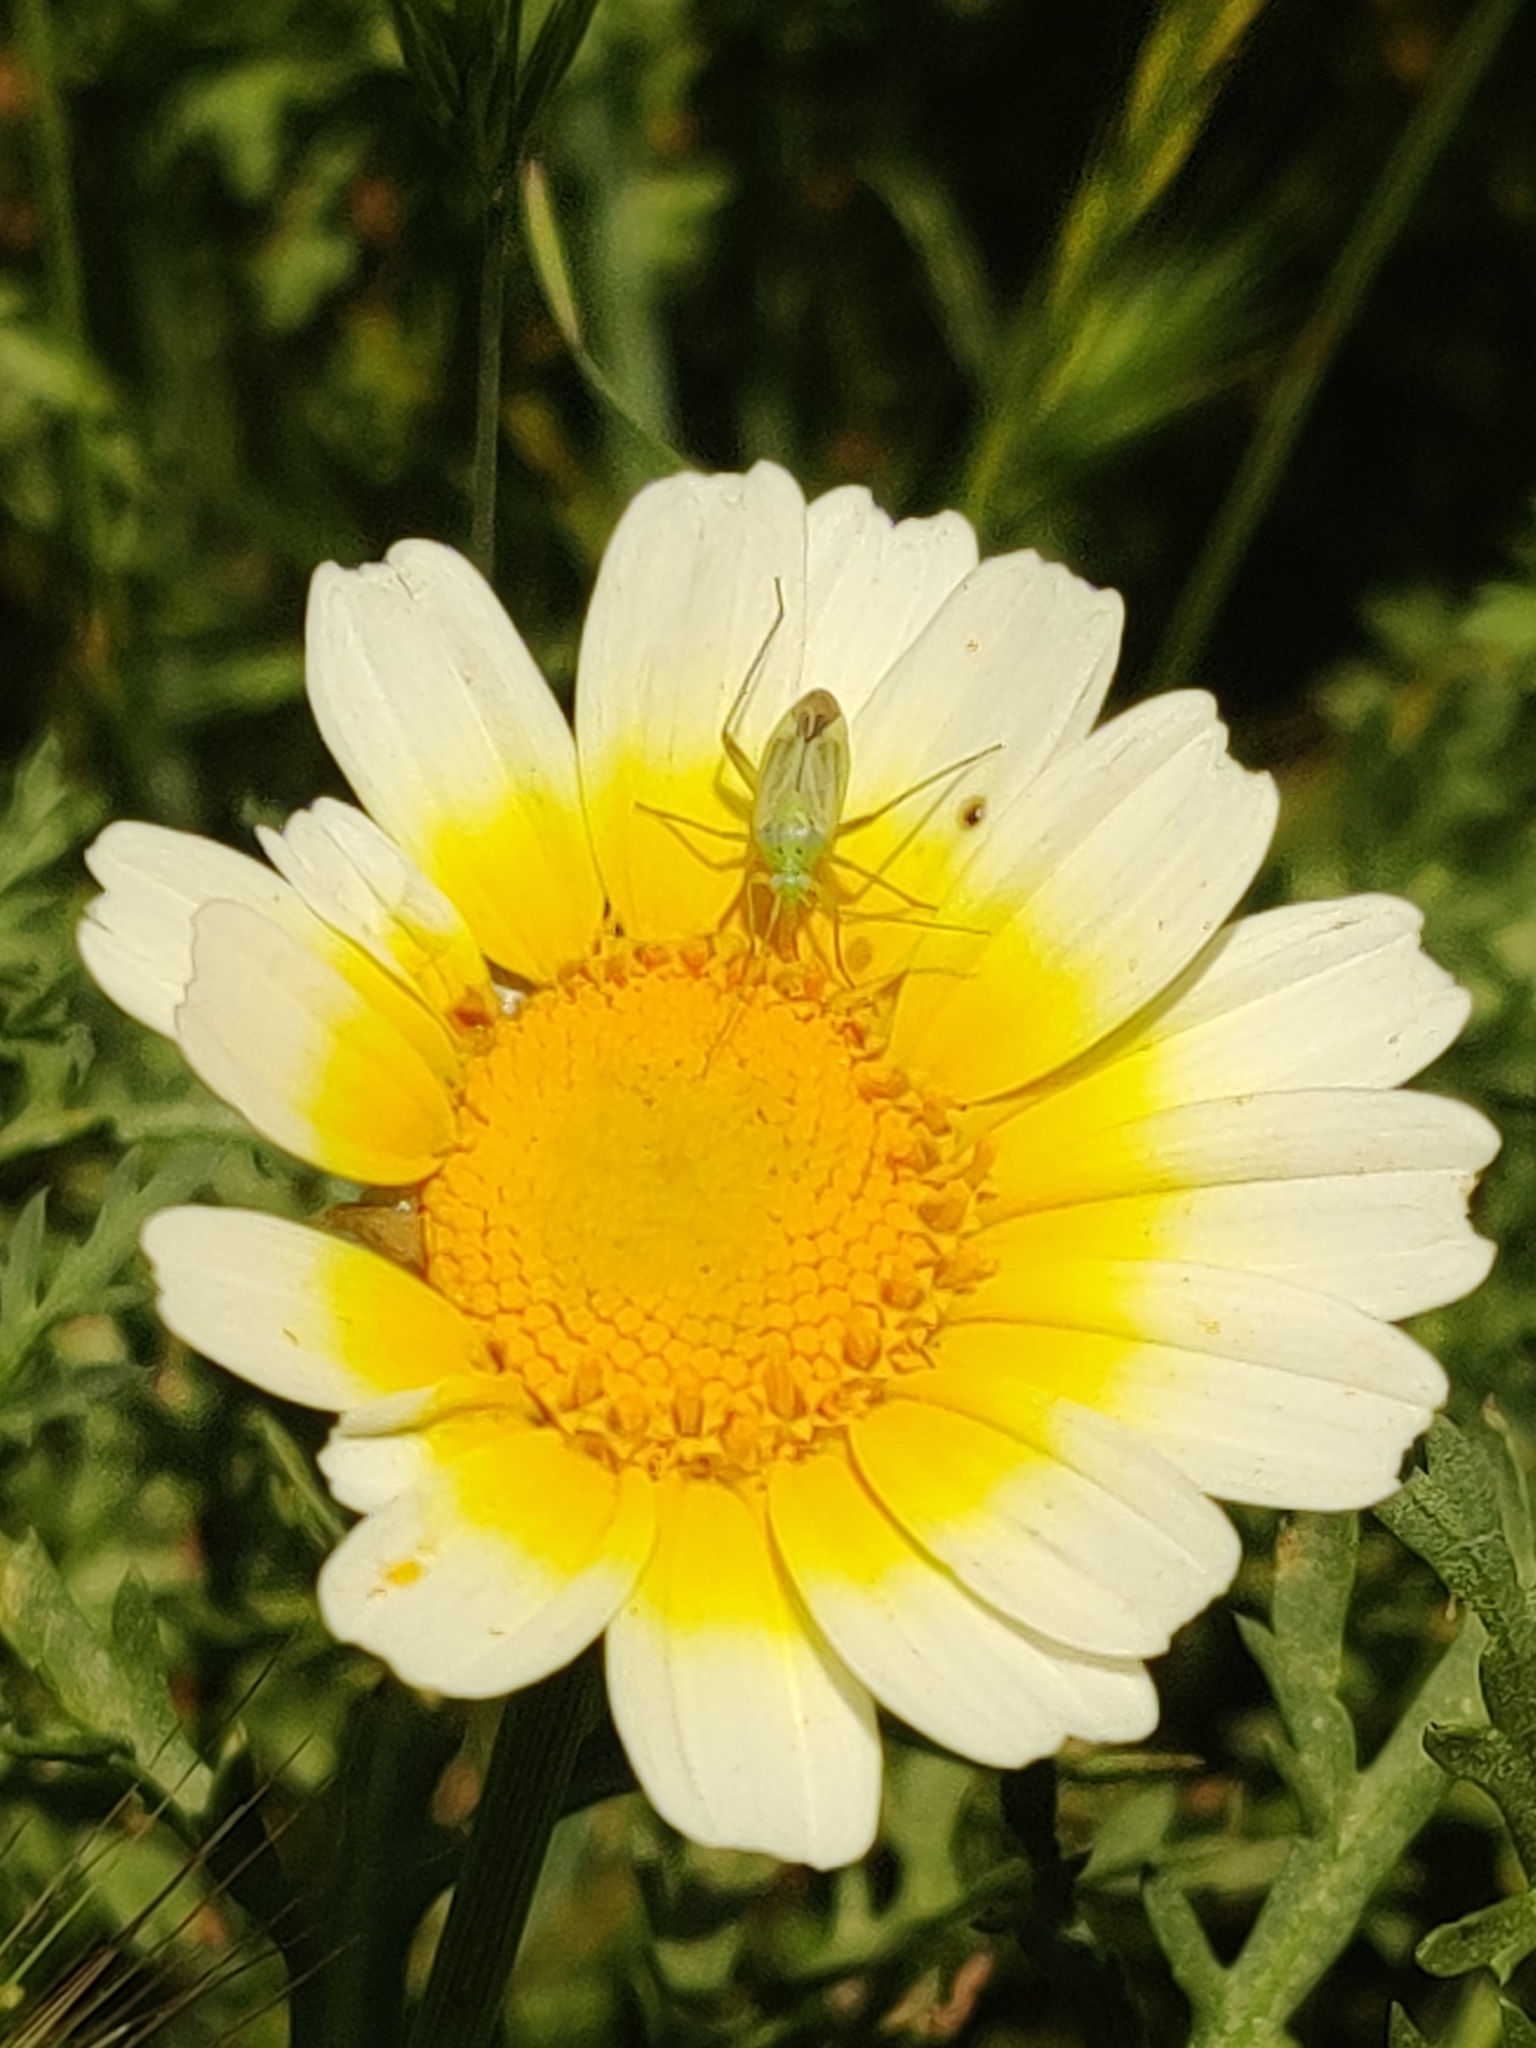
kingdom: Animalia
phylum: Arthropoda
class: Insecta
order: Hemiptera
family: Miridae
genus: Closterotomus
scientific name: Closterotomus norvegicus
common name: Plant bug
